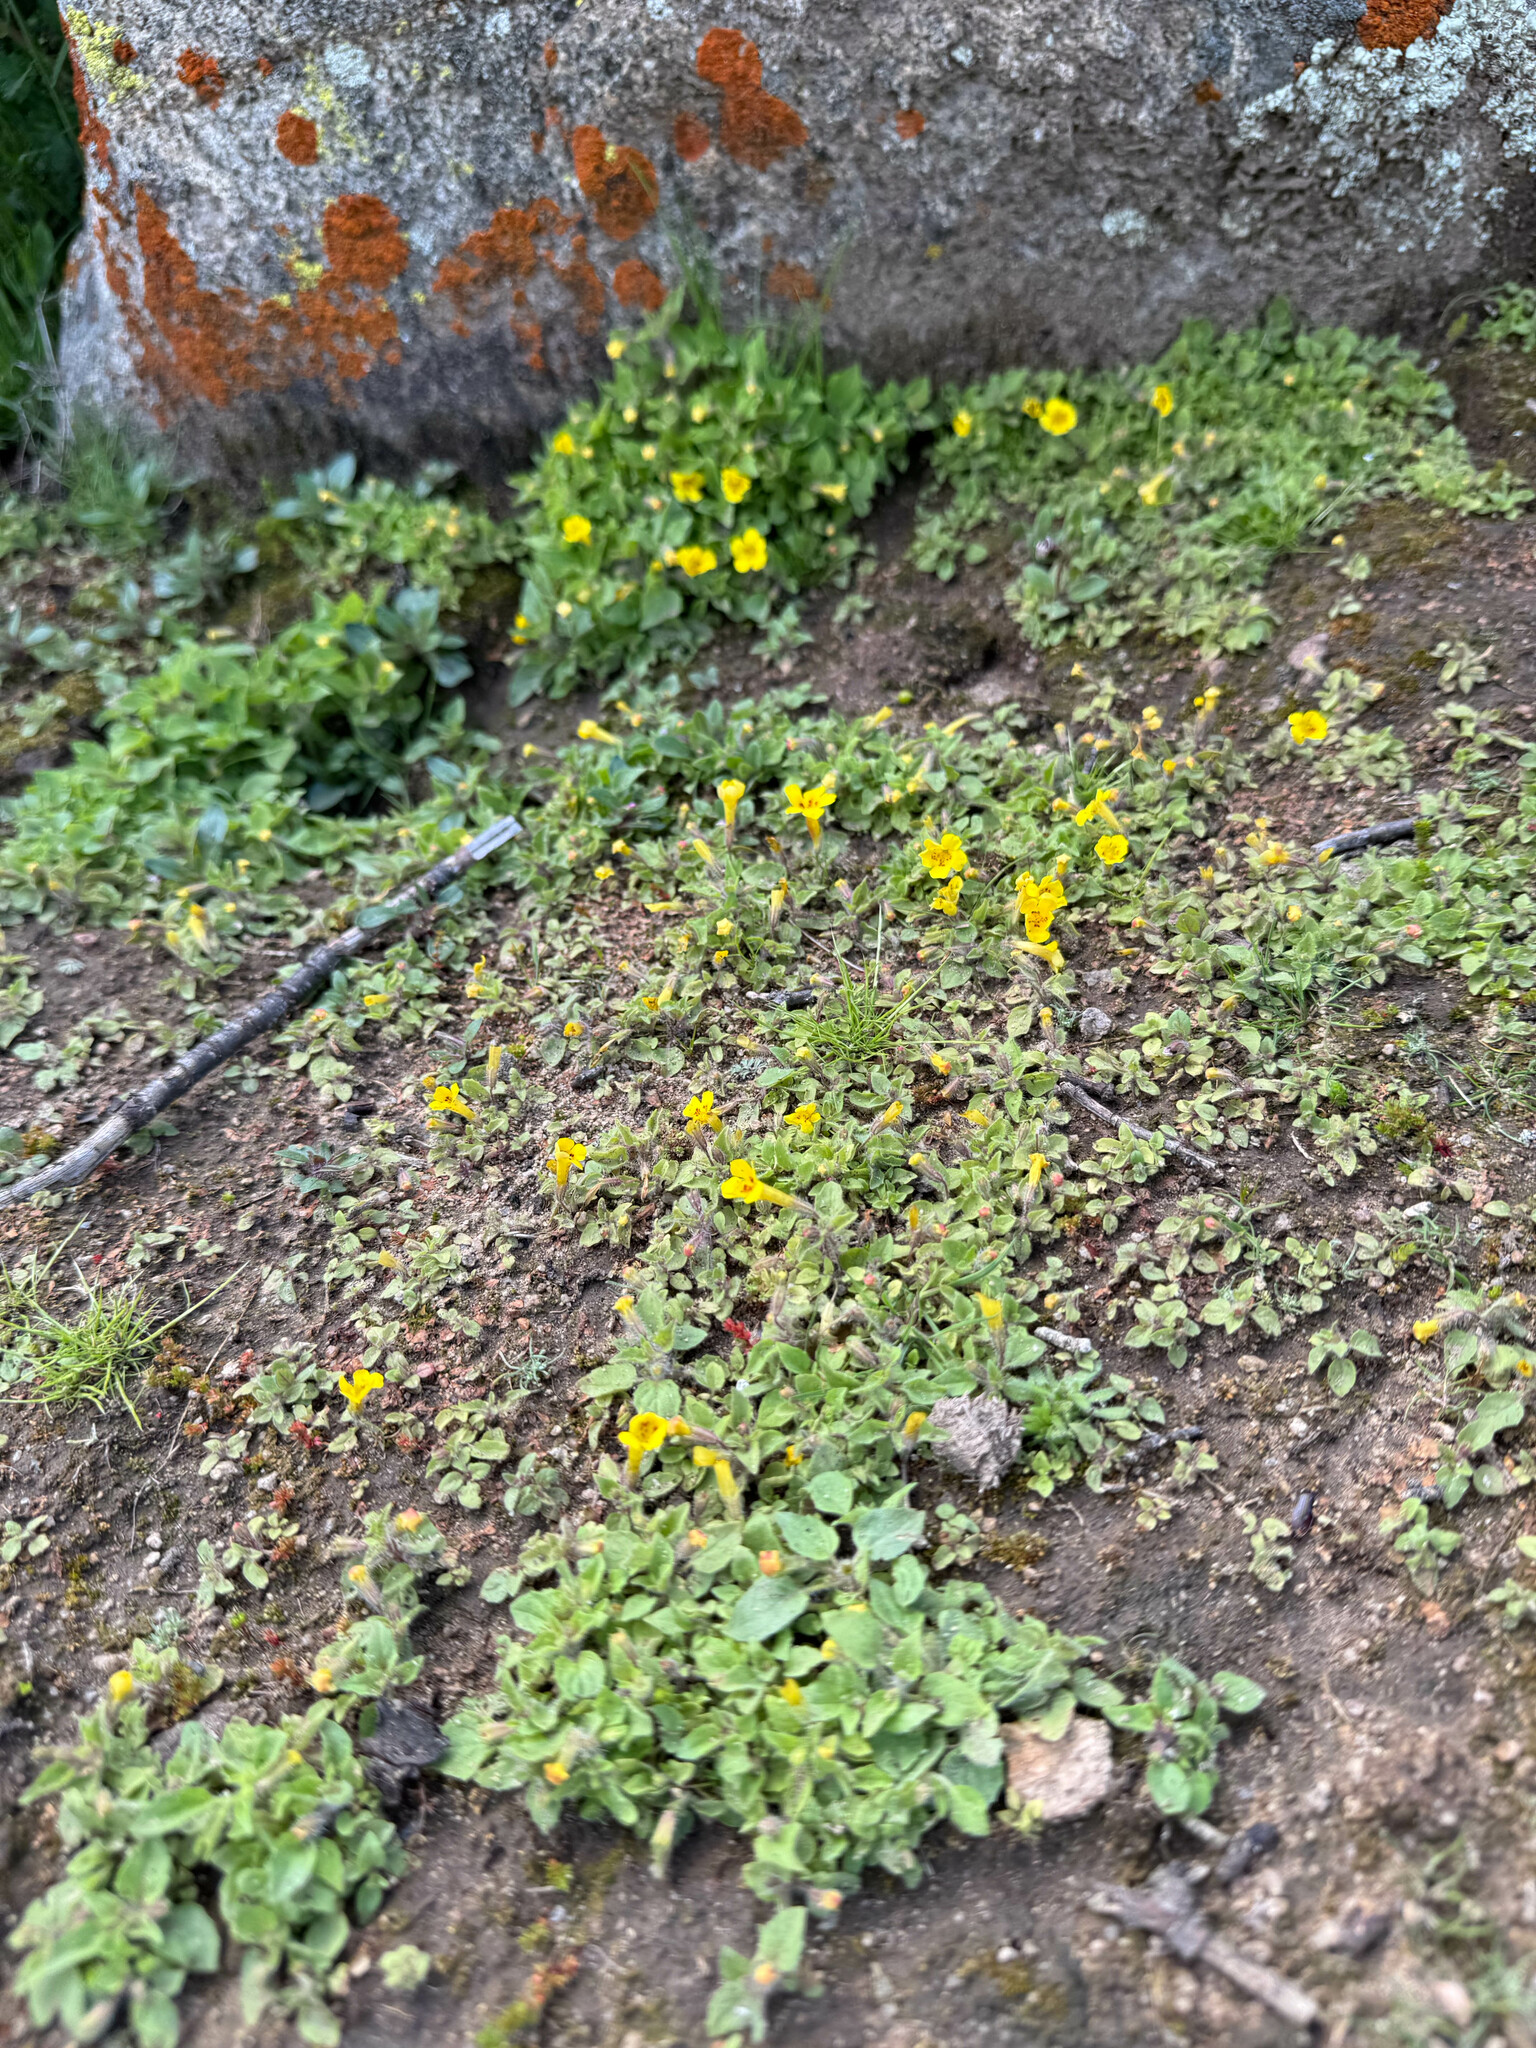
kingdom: Plantae
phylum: Tracheophyta
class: Magnoliopsida
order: Lamiales
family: Phrymaceae
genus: Erythranthe
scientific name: Erythranthe geniculata
